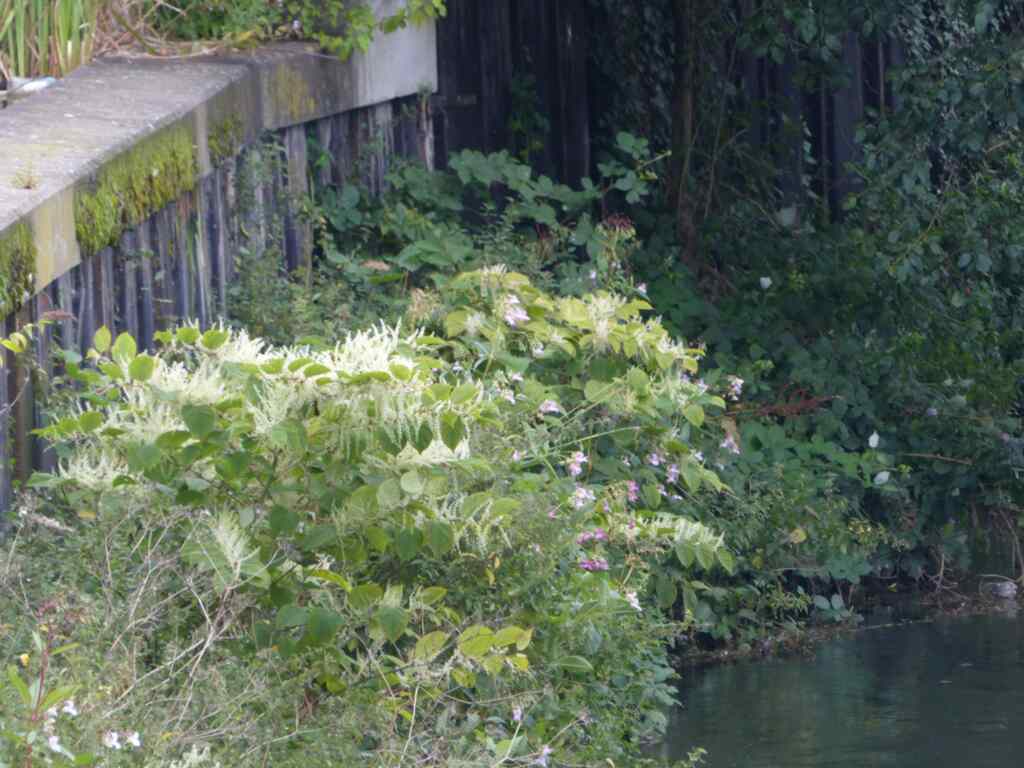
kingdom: Plantae
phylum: Tracheophyta
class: Magnoliopsida
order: Caryophyllales
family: Polygonaceae
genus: Reynoutria
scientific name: Reynoutria japonica
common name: Japanese knotweed
